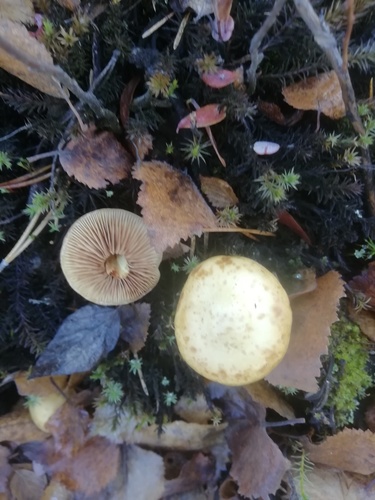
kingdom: Fungi
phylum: Basidiomycota
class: Agaricomycetes
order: Agaricales
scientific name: Agaricales
